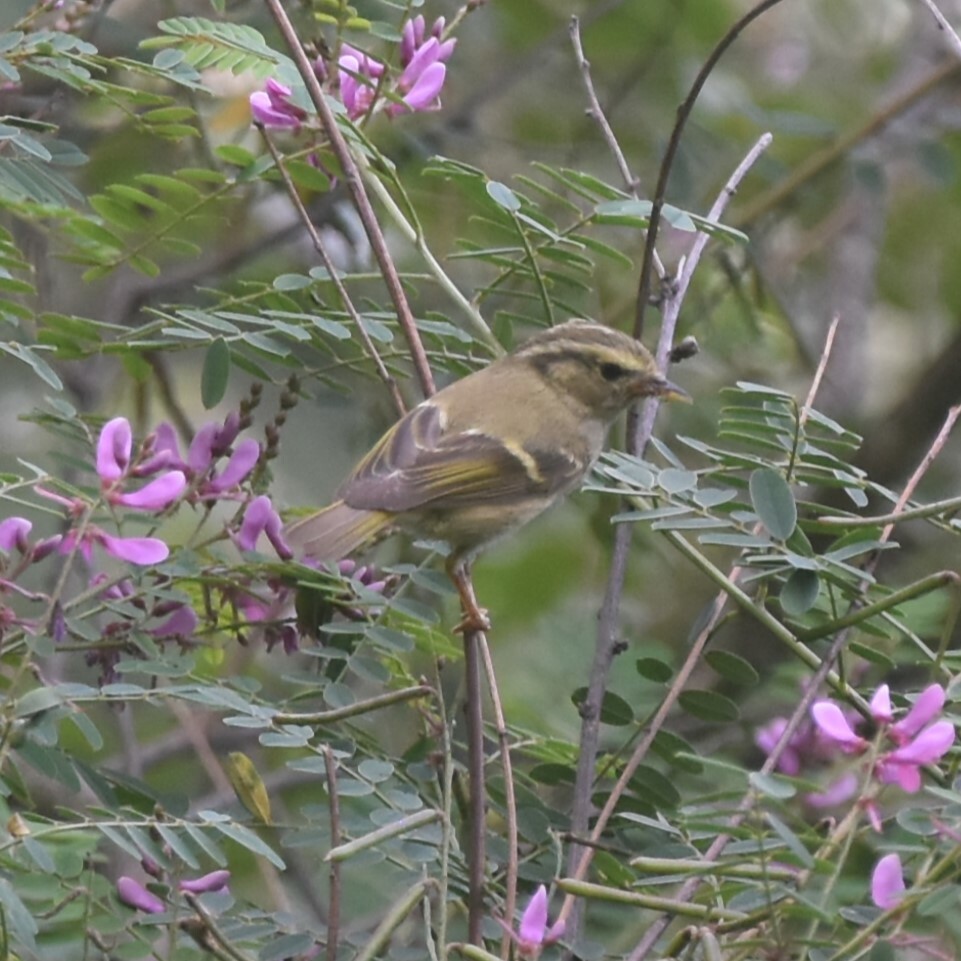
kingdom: Animalia
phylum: Chordata
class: Aves
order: Passeriformes
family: Phylloscopidae
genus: Phylloscopus
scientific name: Phylloscopus chloronotus
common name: Lemon-rumped warbler
